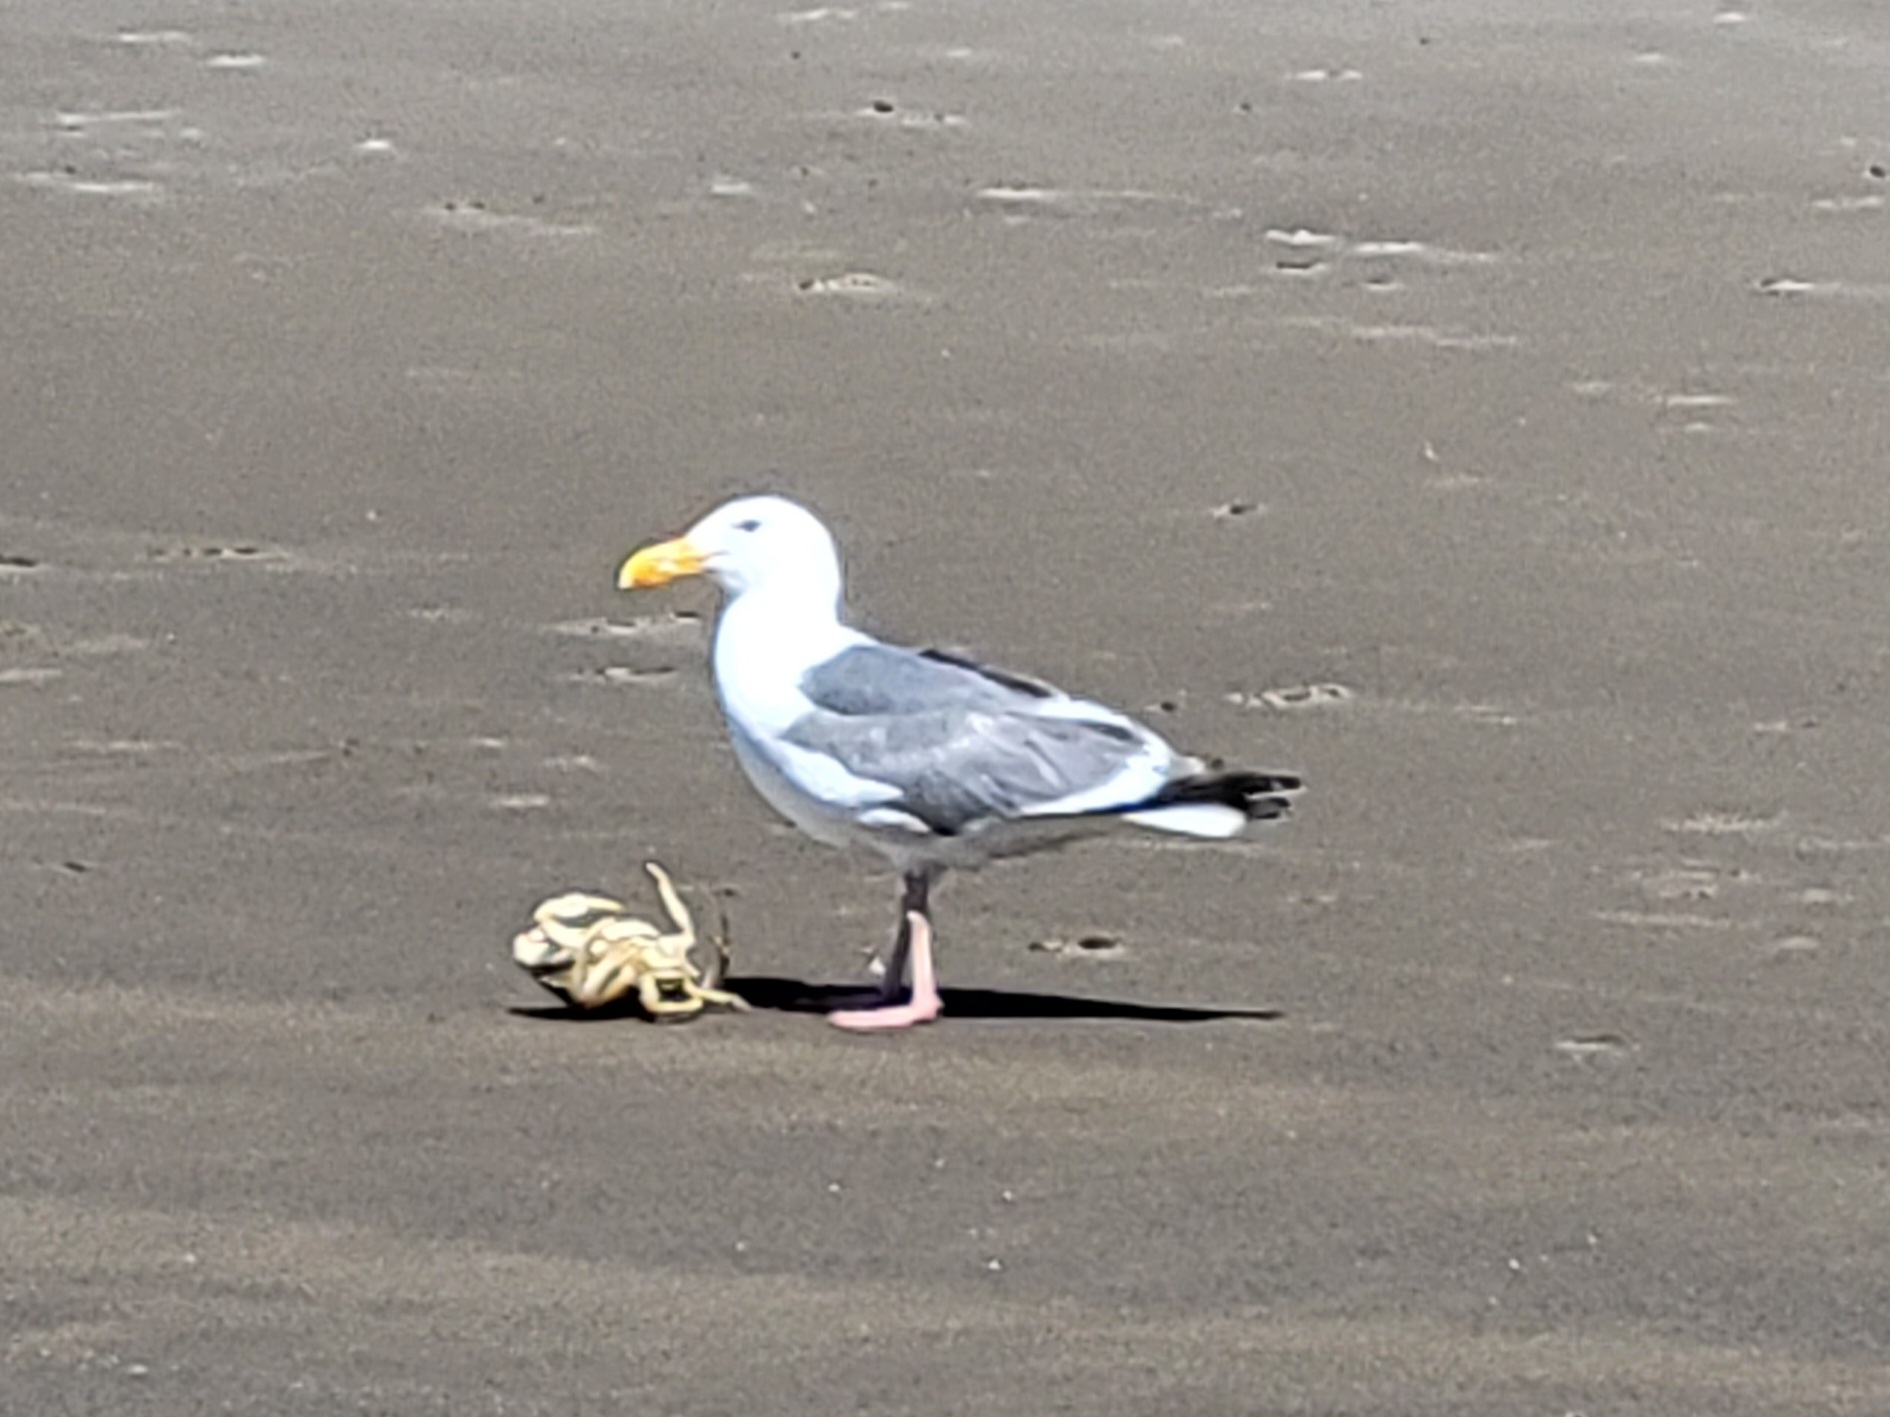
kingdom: Animalia
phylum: Chordata
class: Aves
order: Charadriiformes
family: Laridae
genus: Larus
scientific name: Larus occidentalis
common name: Western gull
